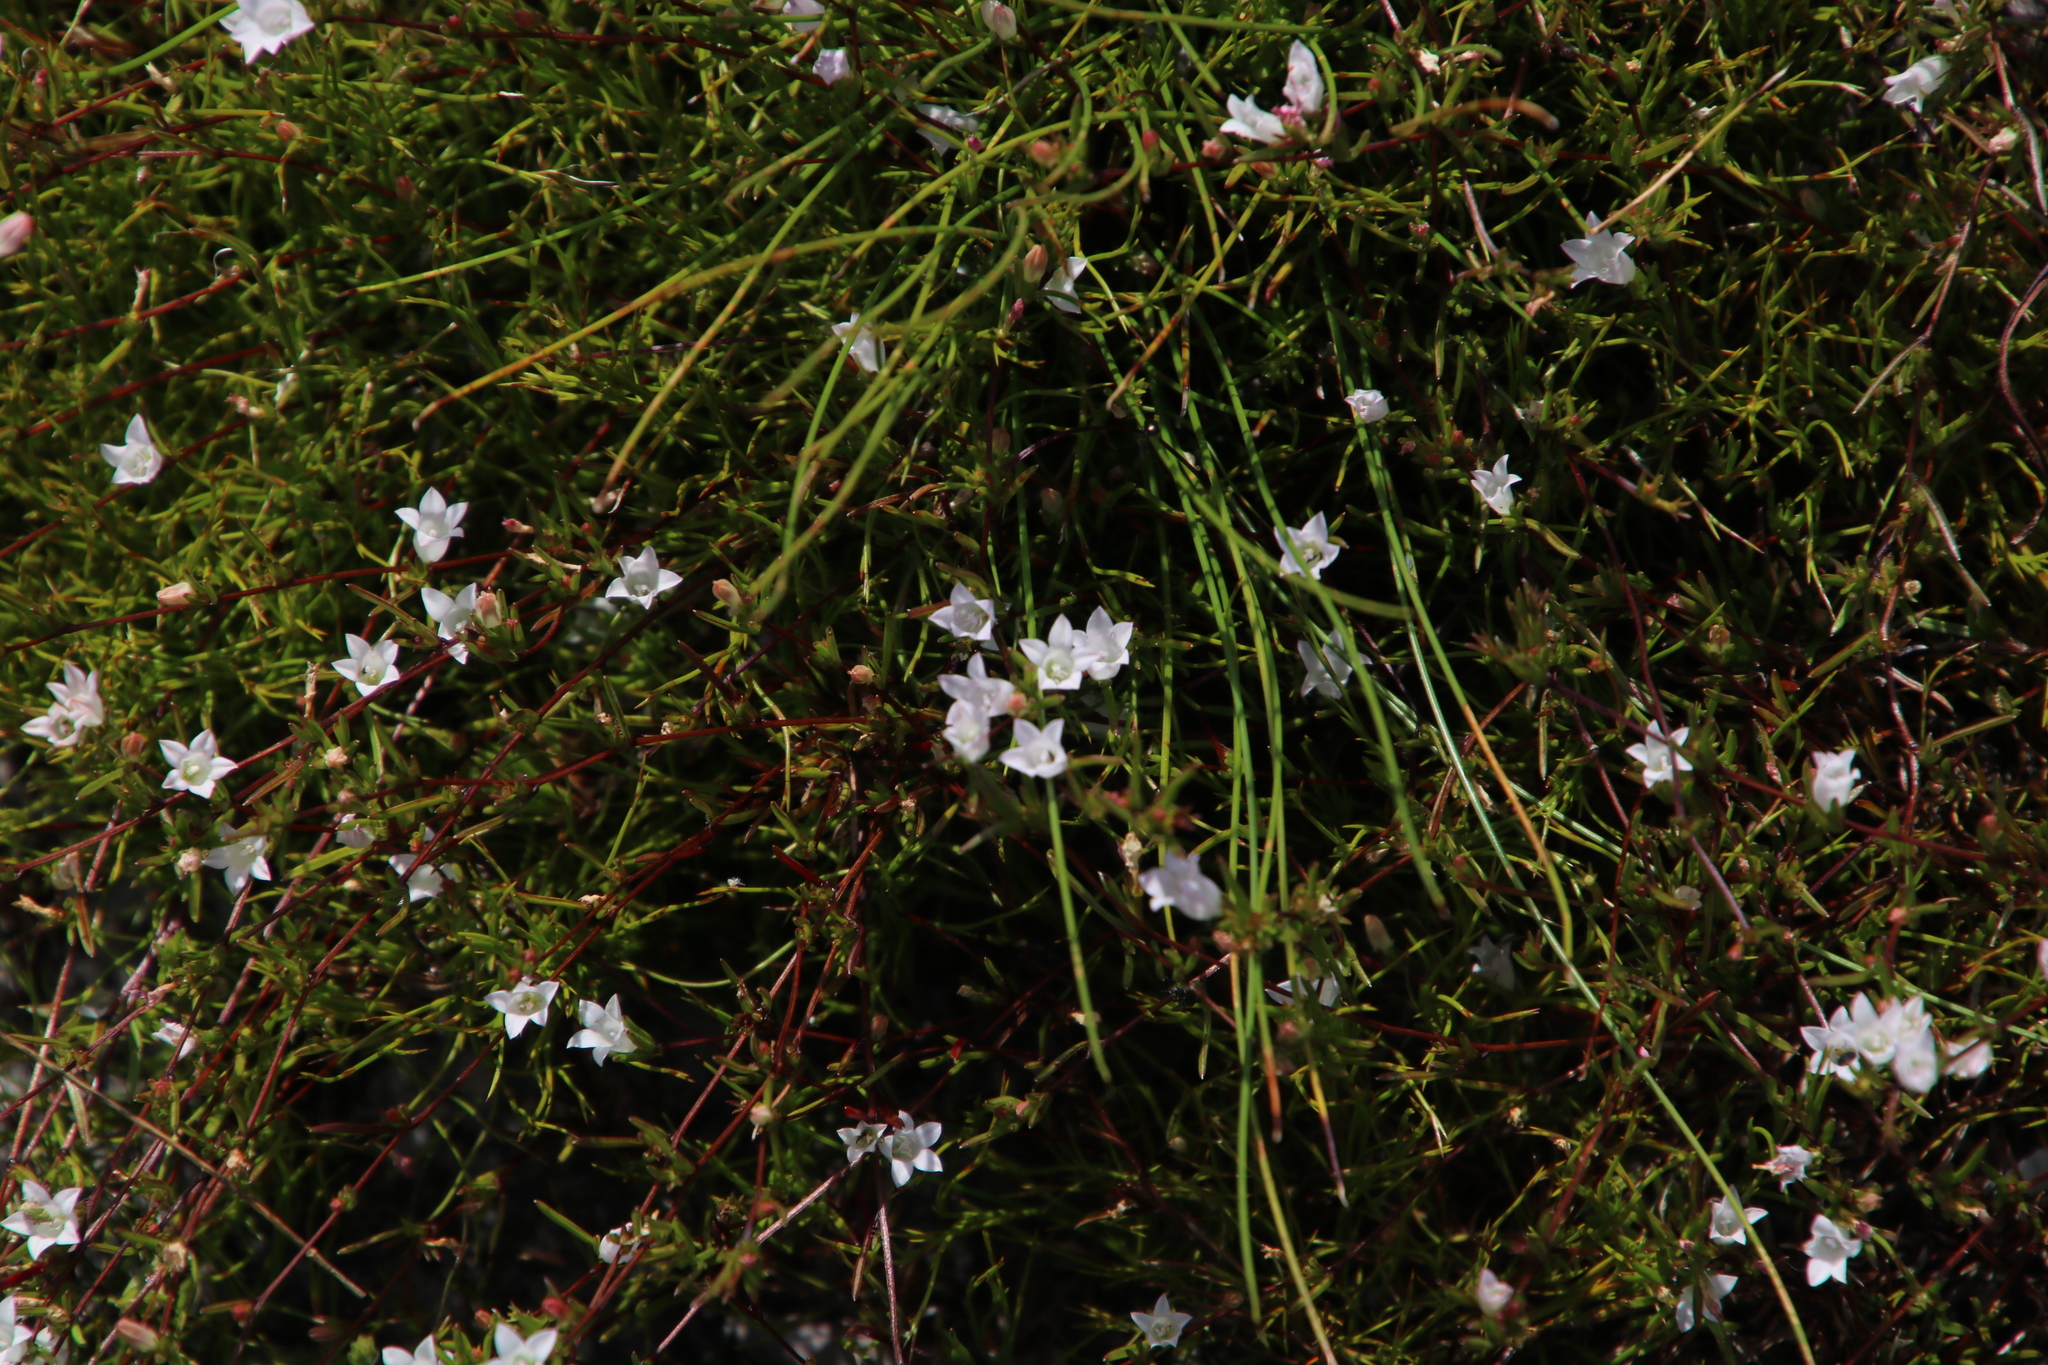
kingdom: Plantae
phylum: Tracheophyta
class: Magnoliopsida
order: Asterales
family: Campanulaceae
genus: Prismatocarpus
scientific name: Prismatocarpus sessilis
